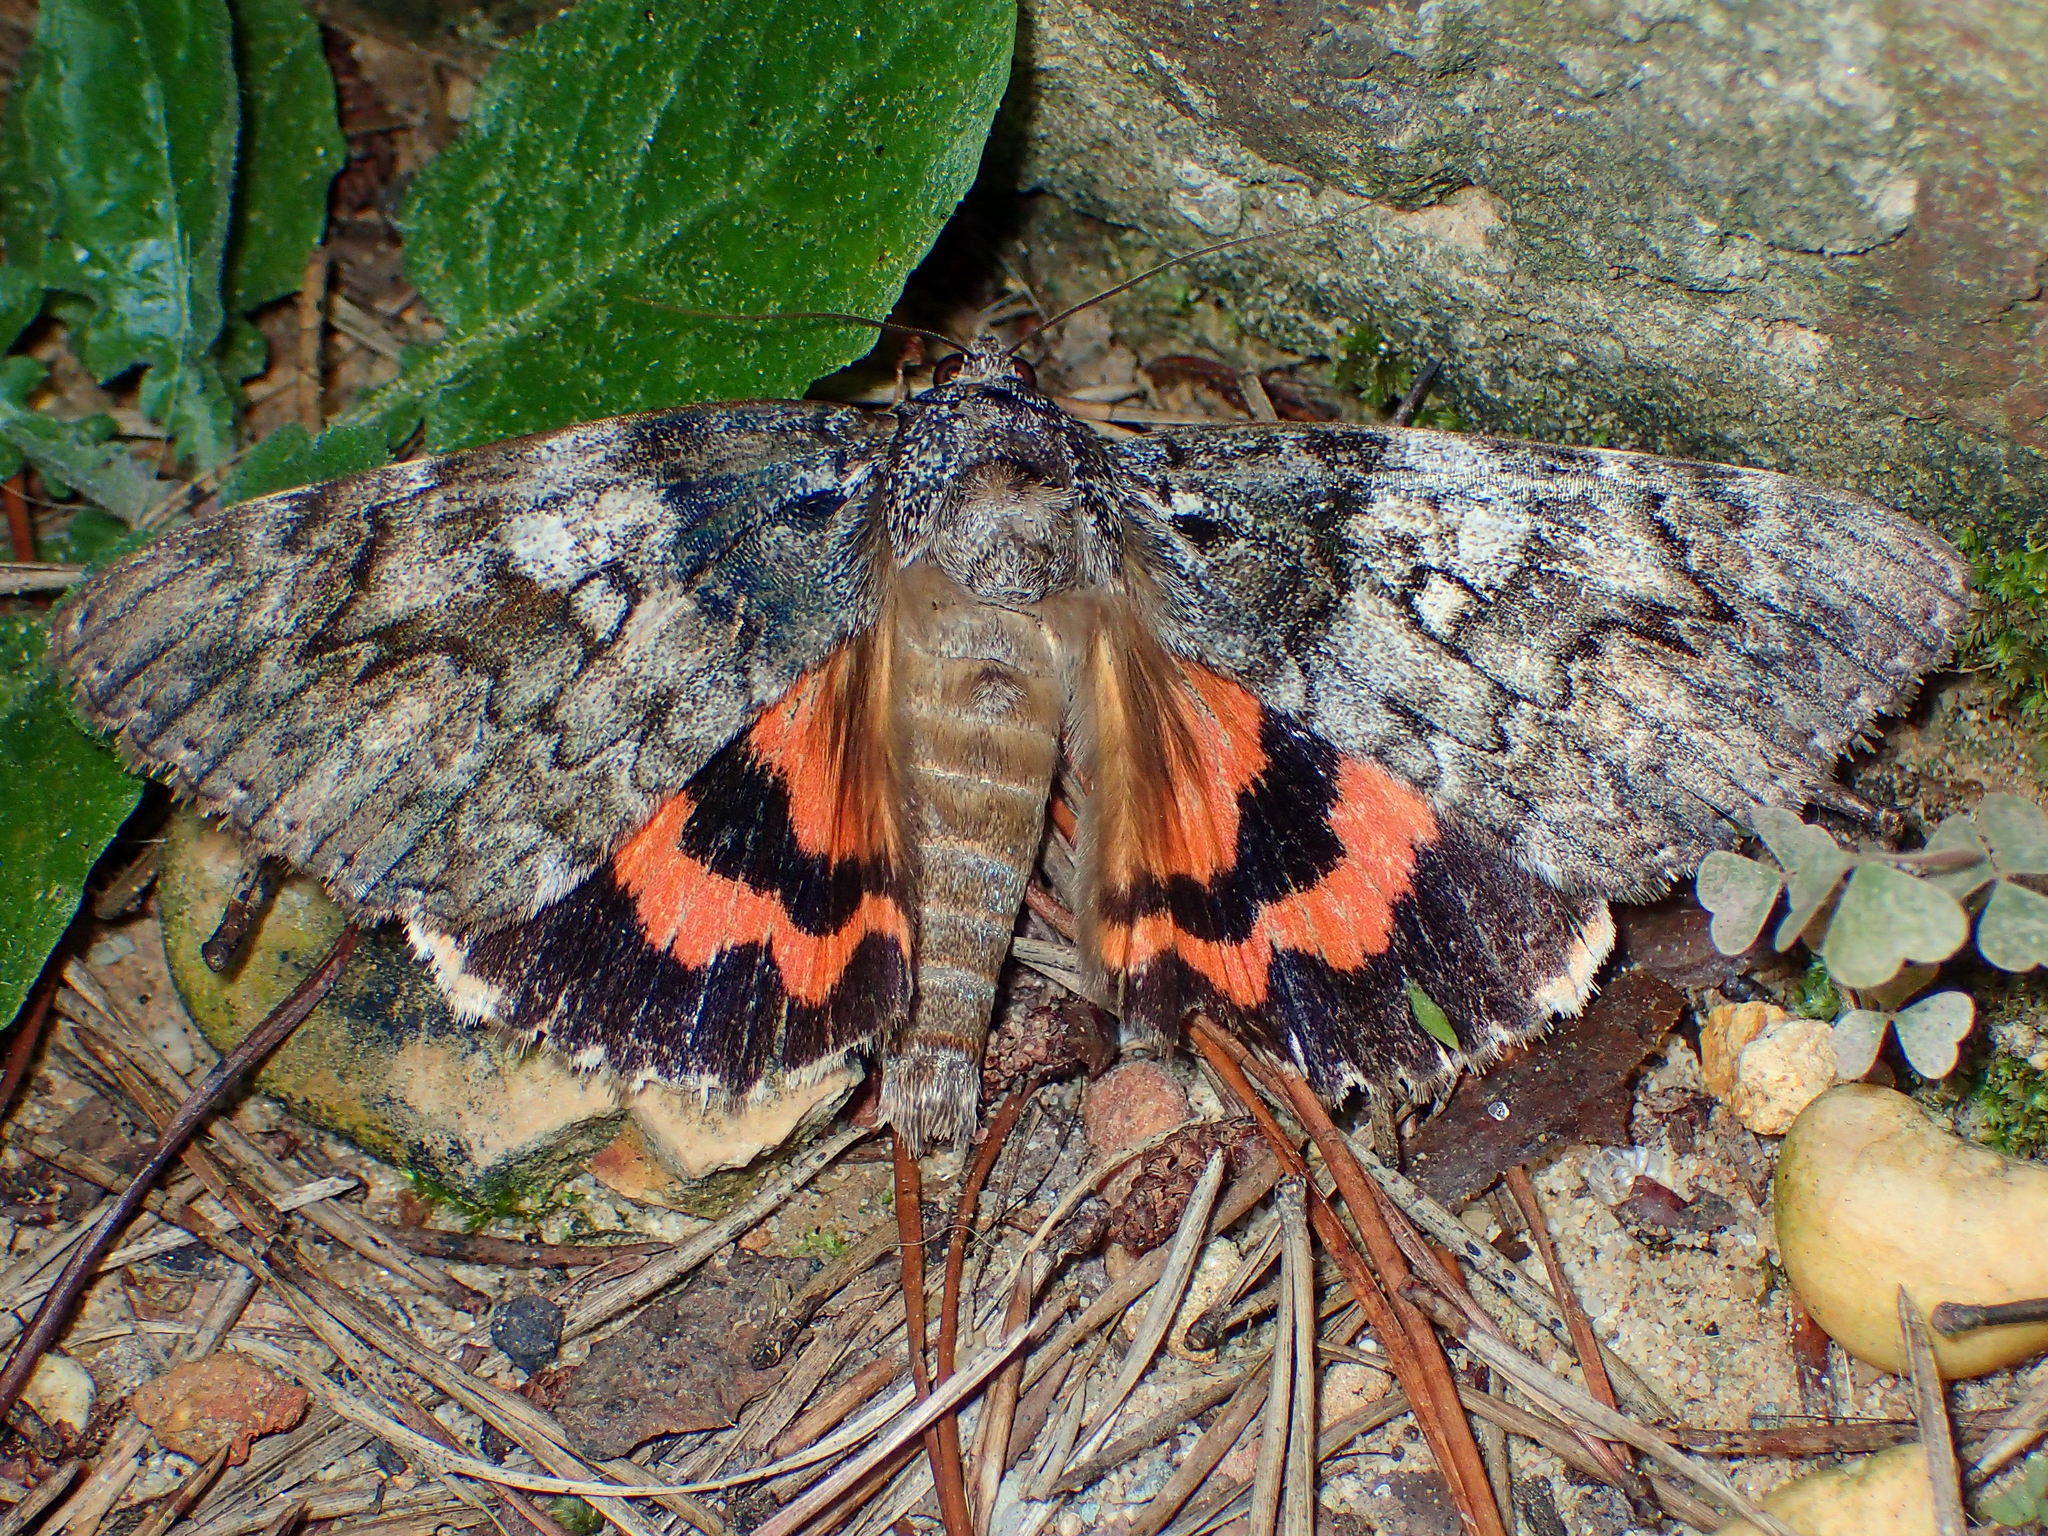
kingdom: Animalia
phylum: Arthropoda
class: Insecta
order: Lepidoptera
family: Erebidae
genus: Catocala
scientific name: Catocala ilia
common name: Ilia underwing
